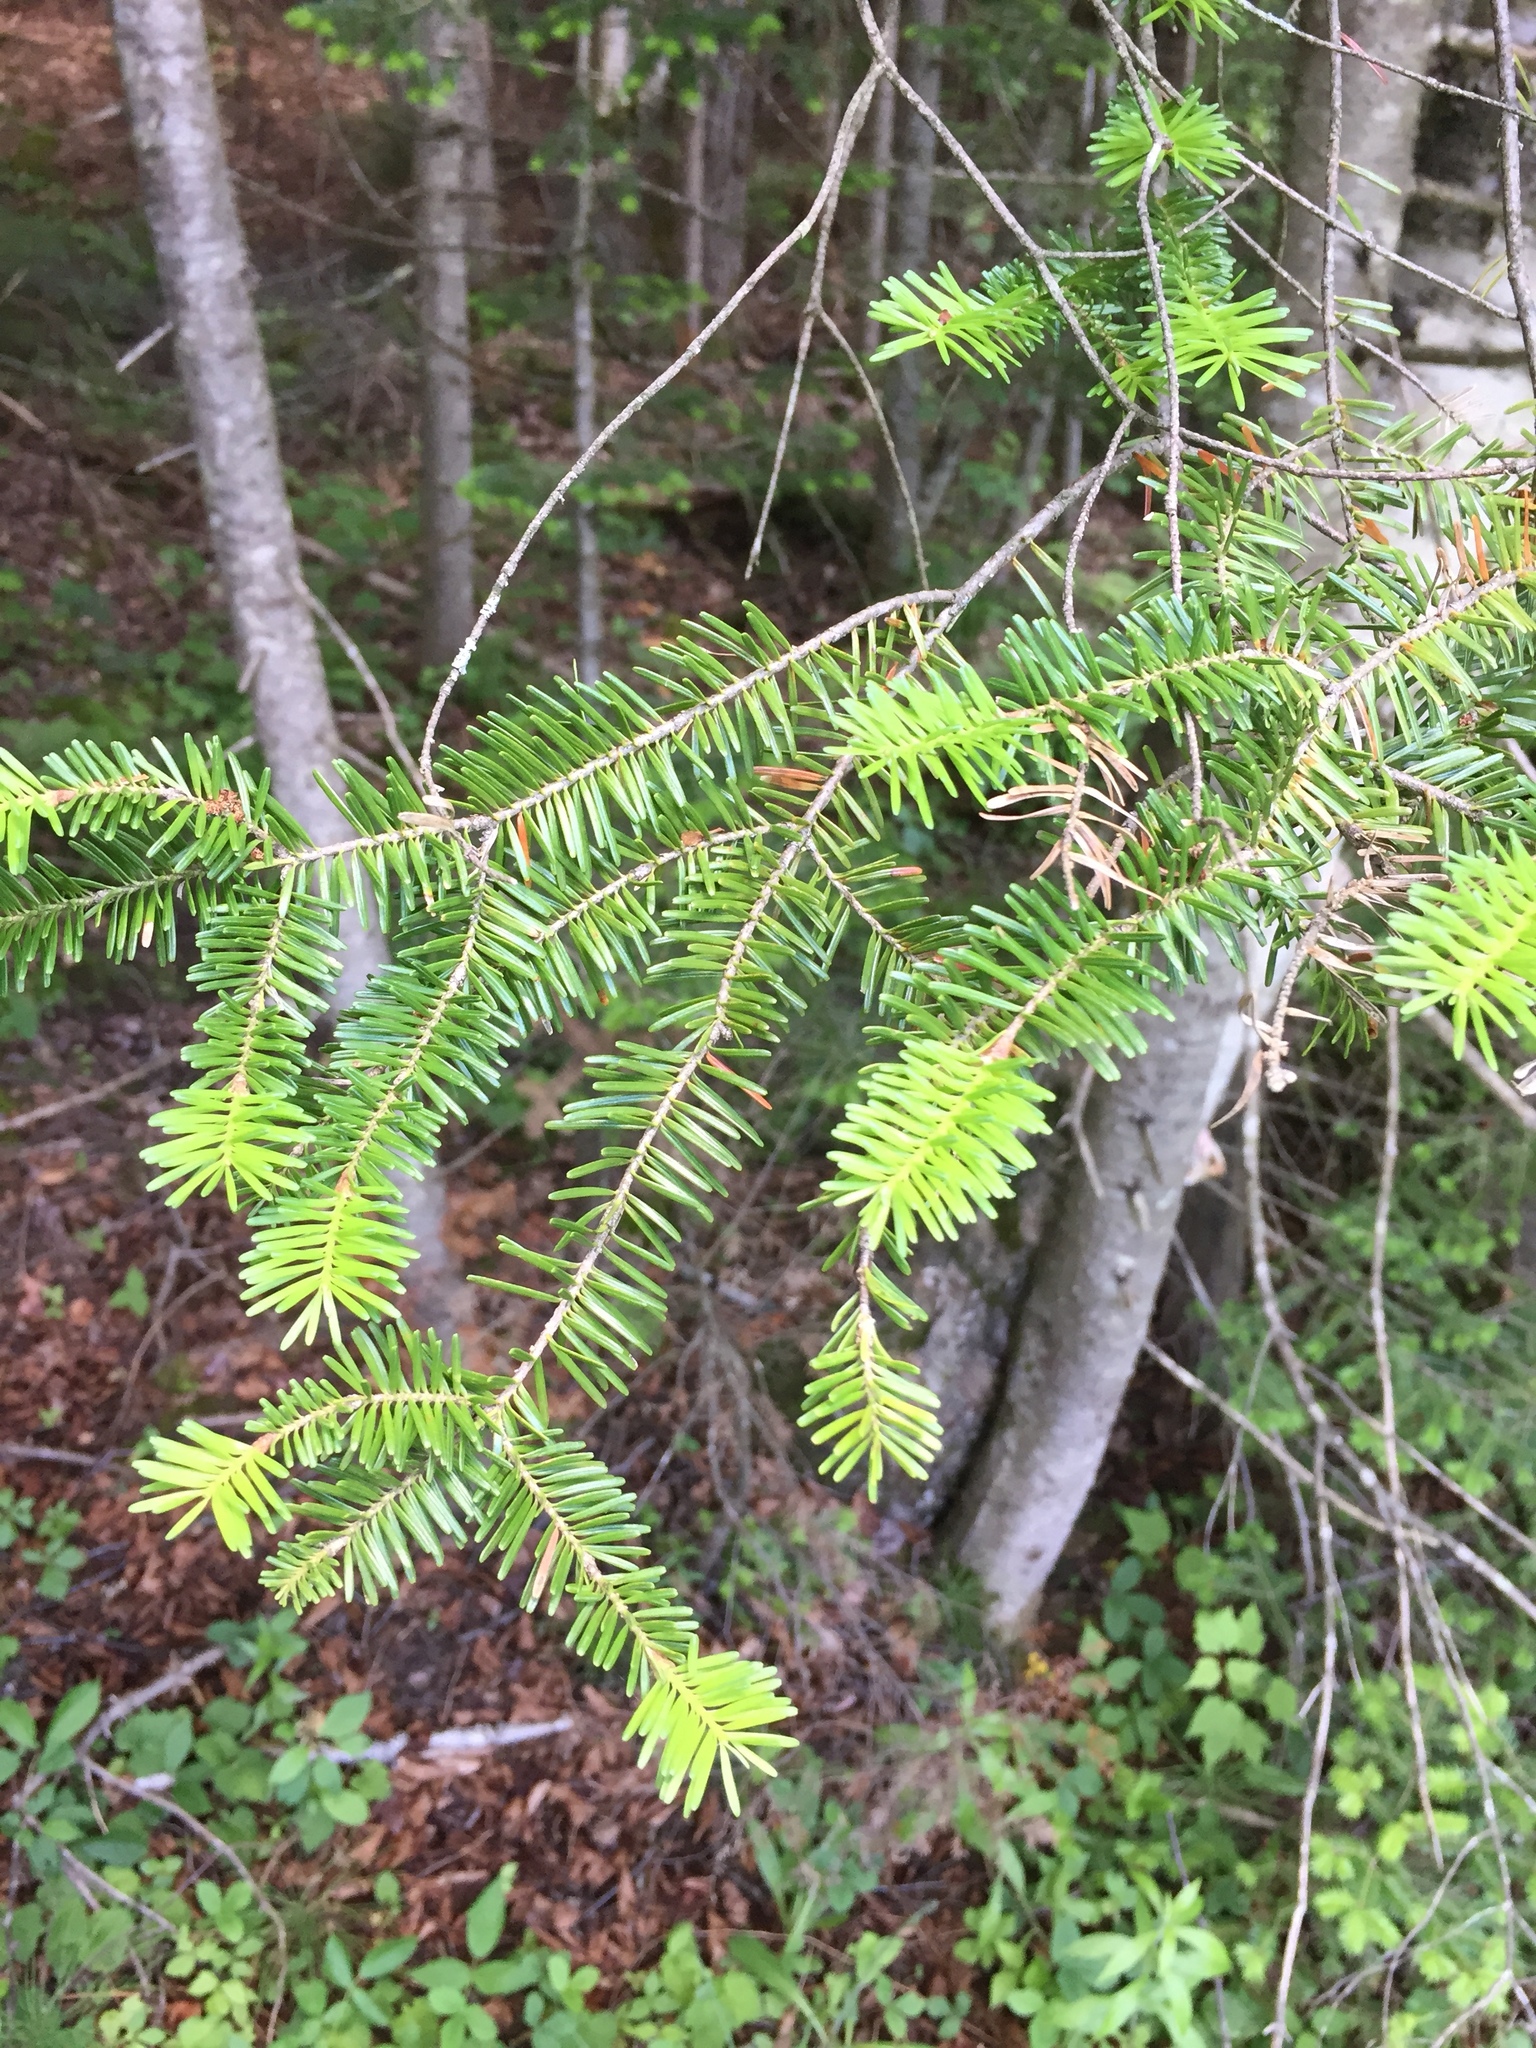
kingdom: Plantae
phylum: Tracheophyta
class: Pinopsida
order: Pinales
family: Pinaceae
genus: Abies
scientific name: Abies balsamea
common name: Balsam fir
